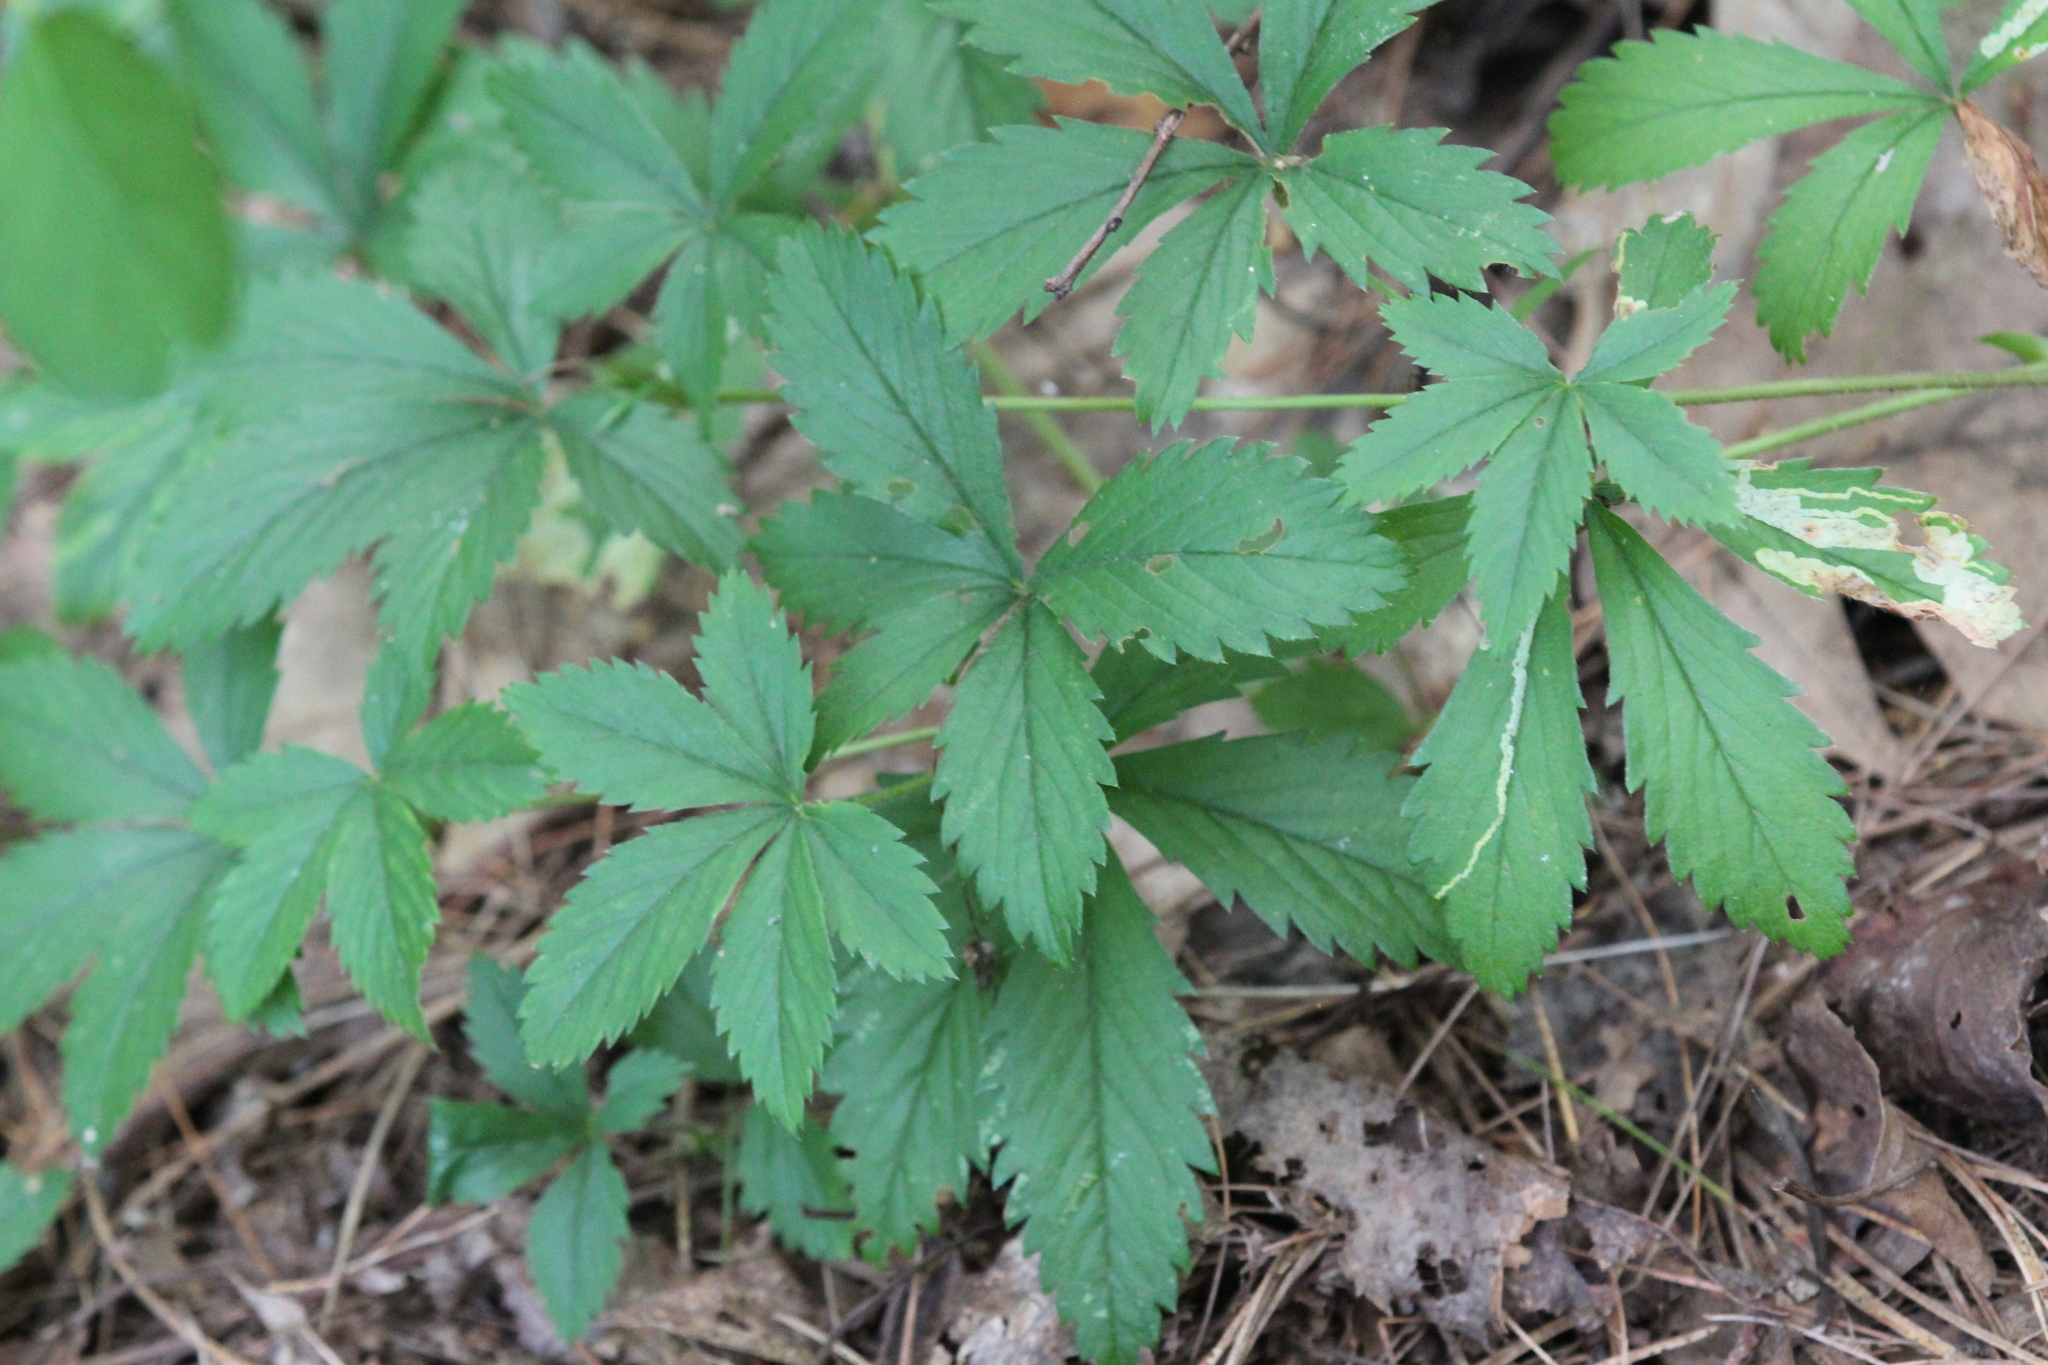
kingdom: Plantae
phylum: Tracheophyta
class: Magnoliopsida
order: Rosales
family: Rosaceae
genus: Potentilla
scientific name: Potentilla simplex
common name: Old field cinquefoil
